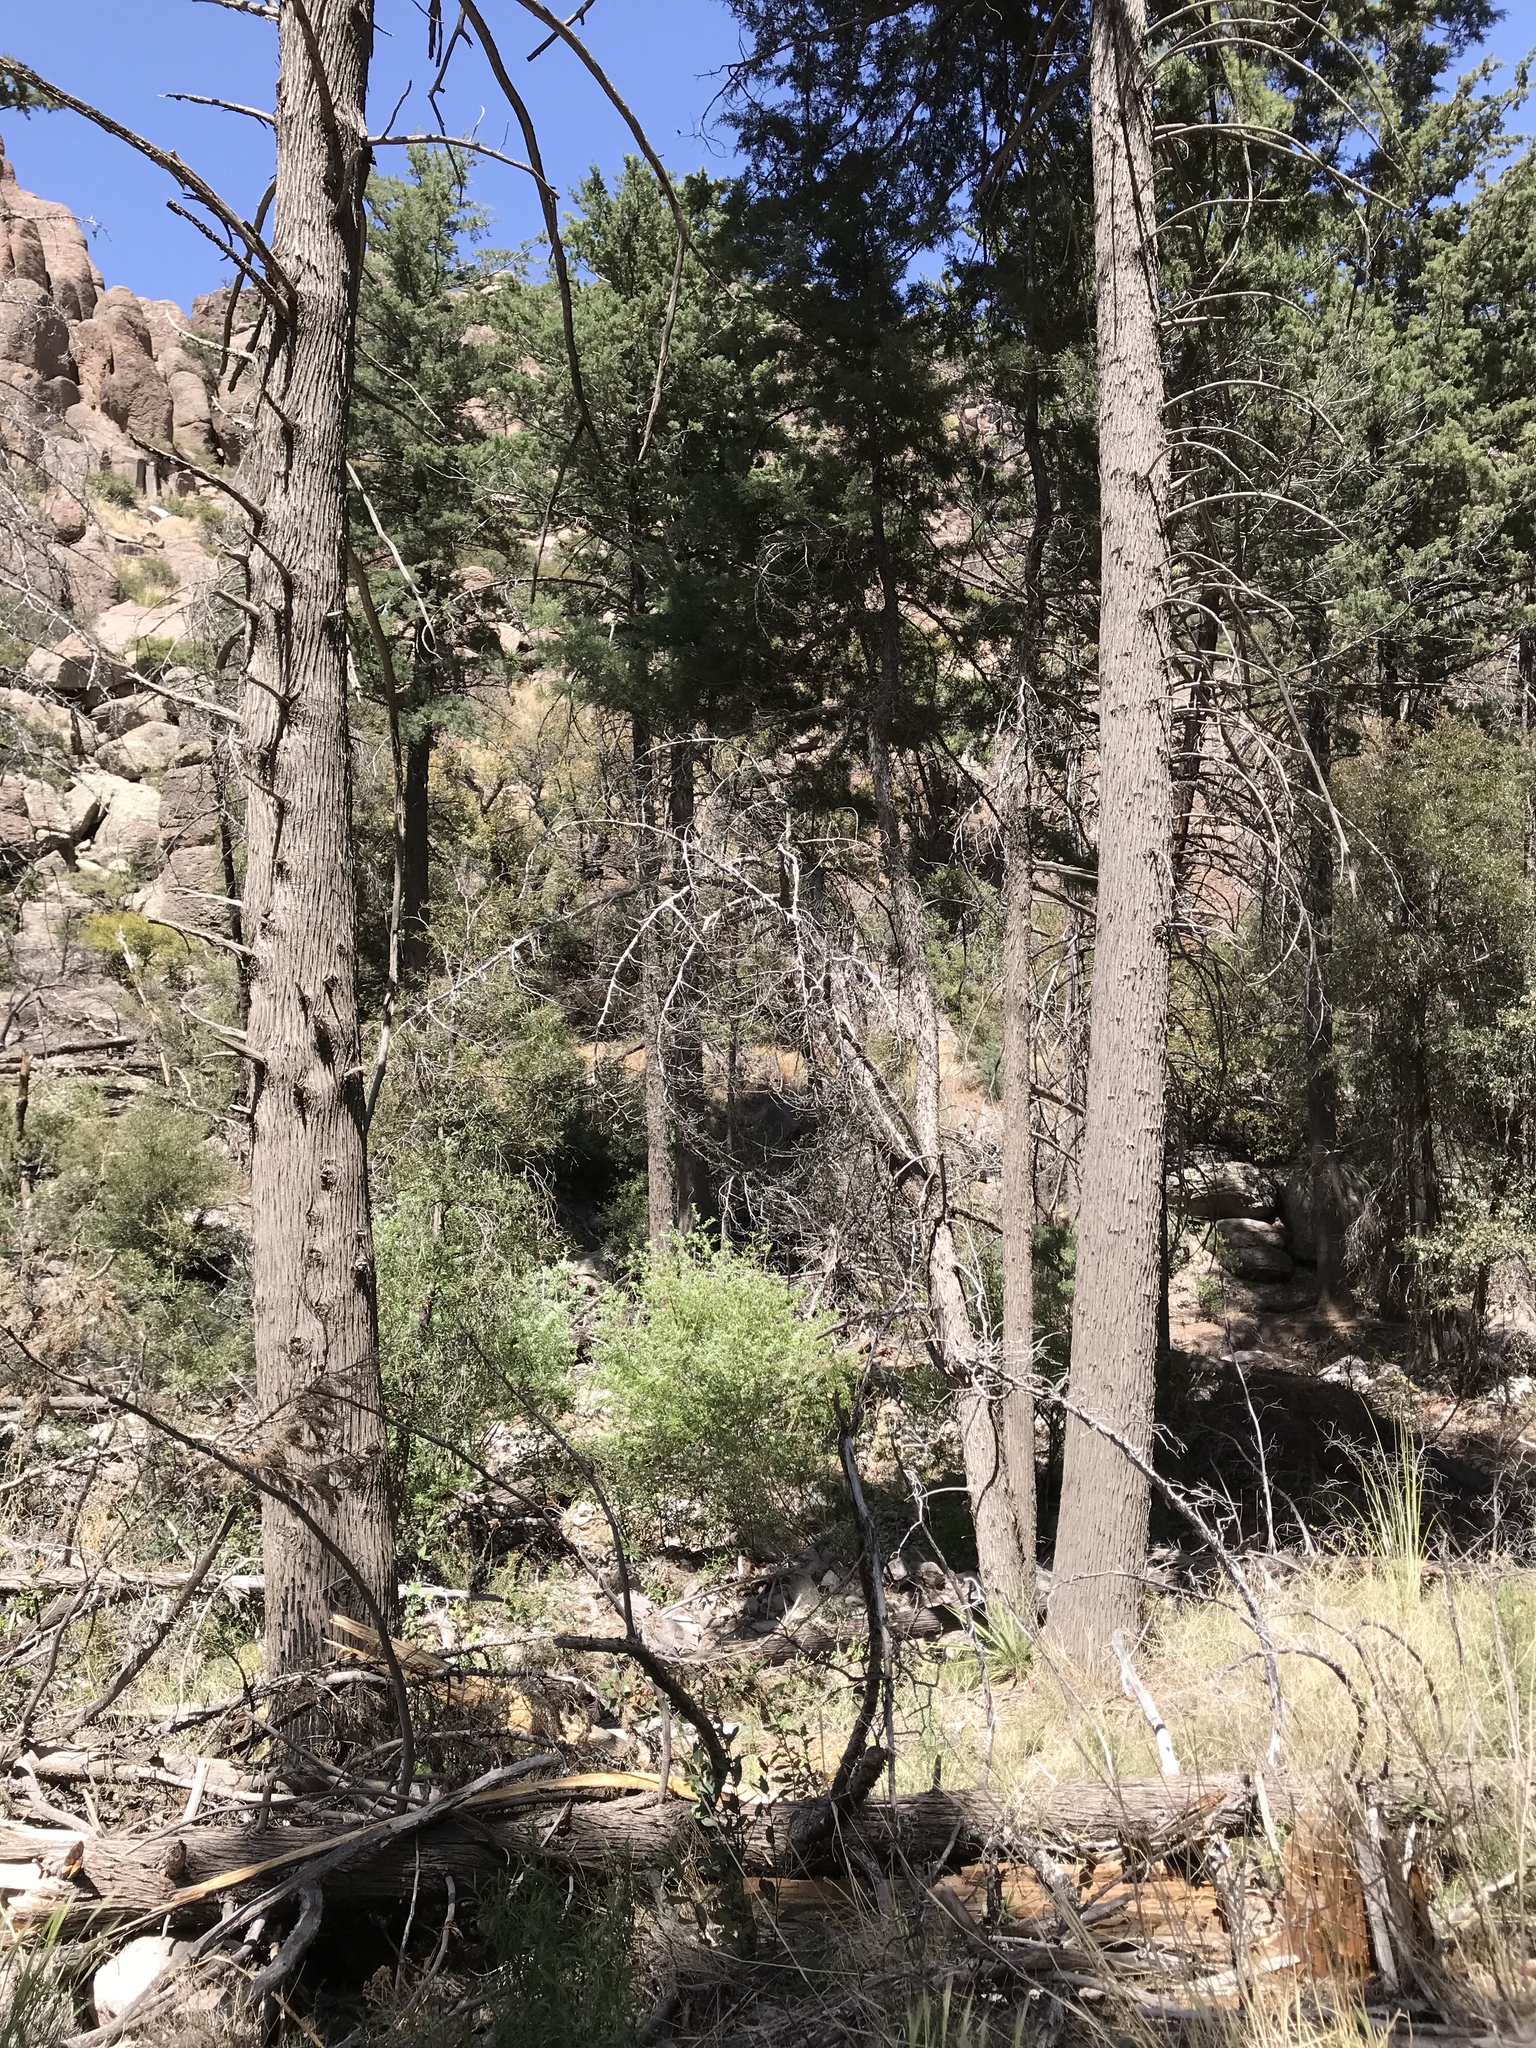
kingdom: Plantae
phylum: Tracheophyta
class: Pinopsida
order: Pinales
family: Cupressaceae
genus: Cupressus
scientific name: Cupressus arizonica
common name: Arizona cypress
